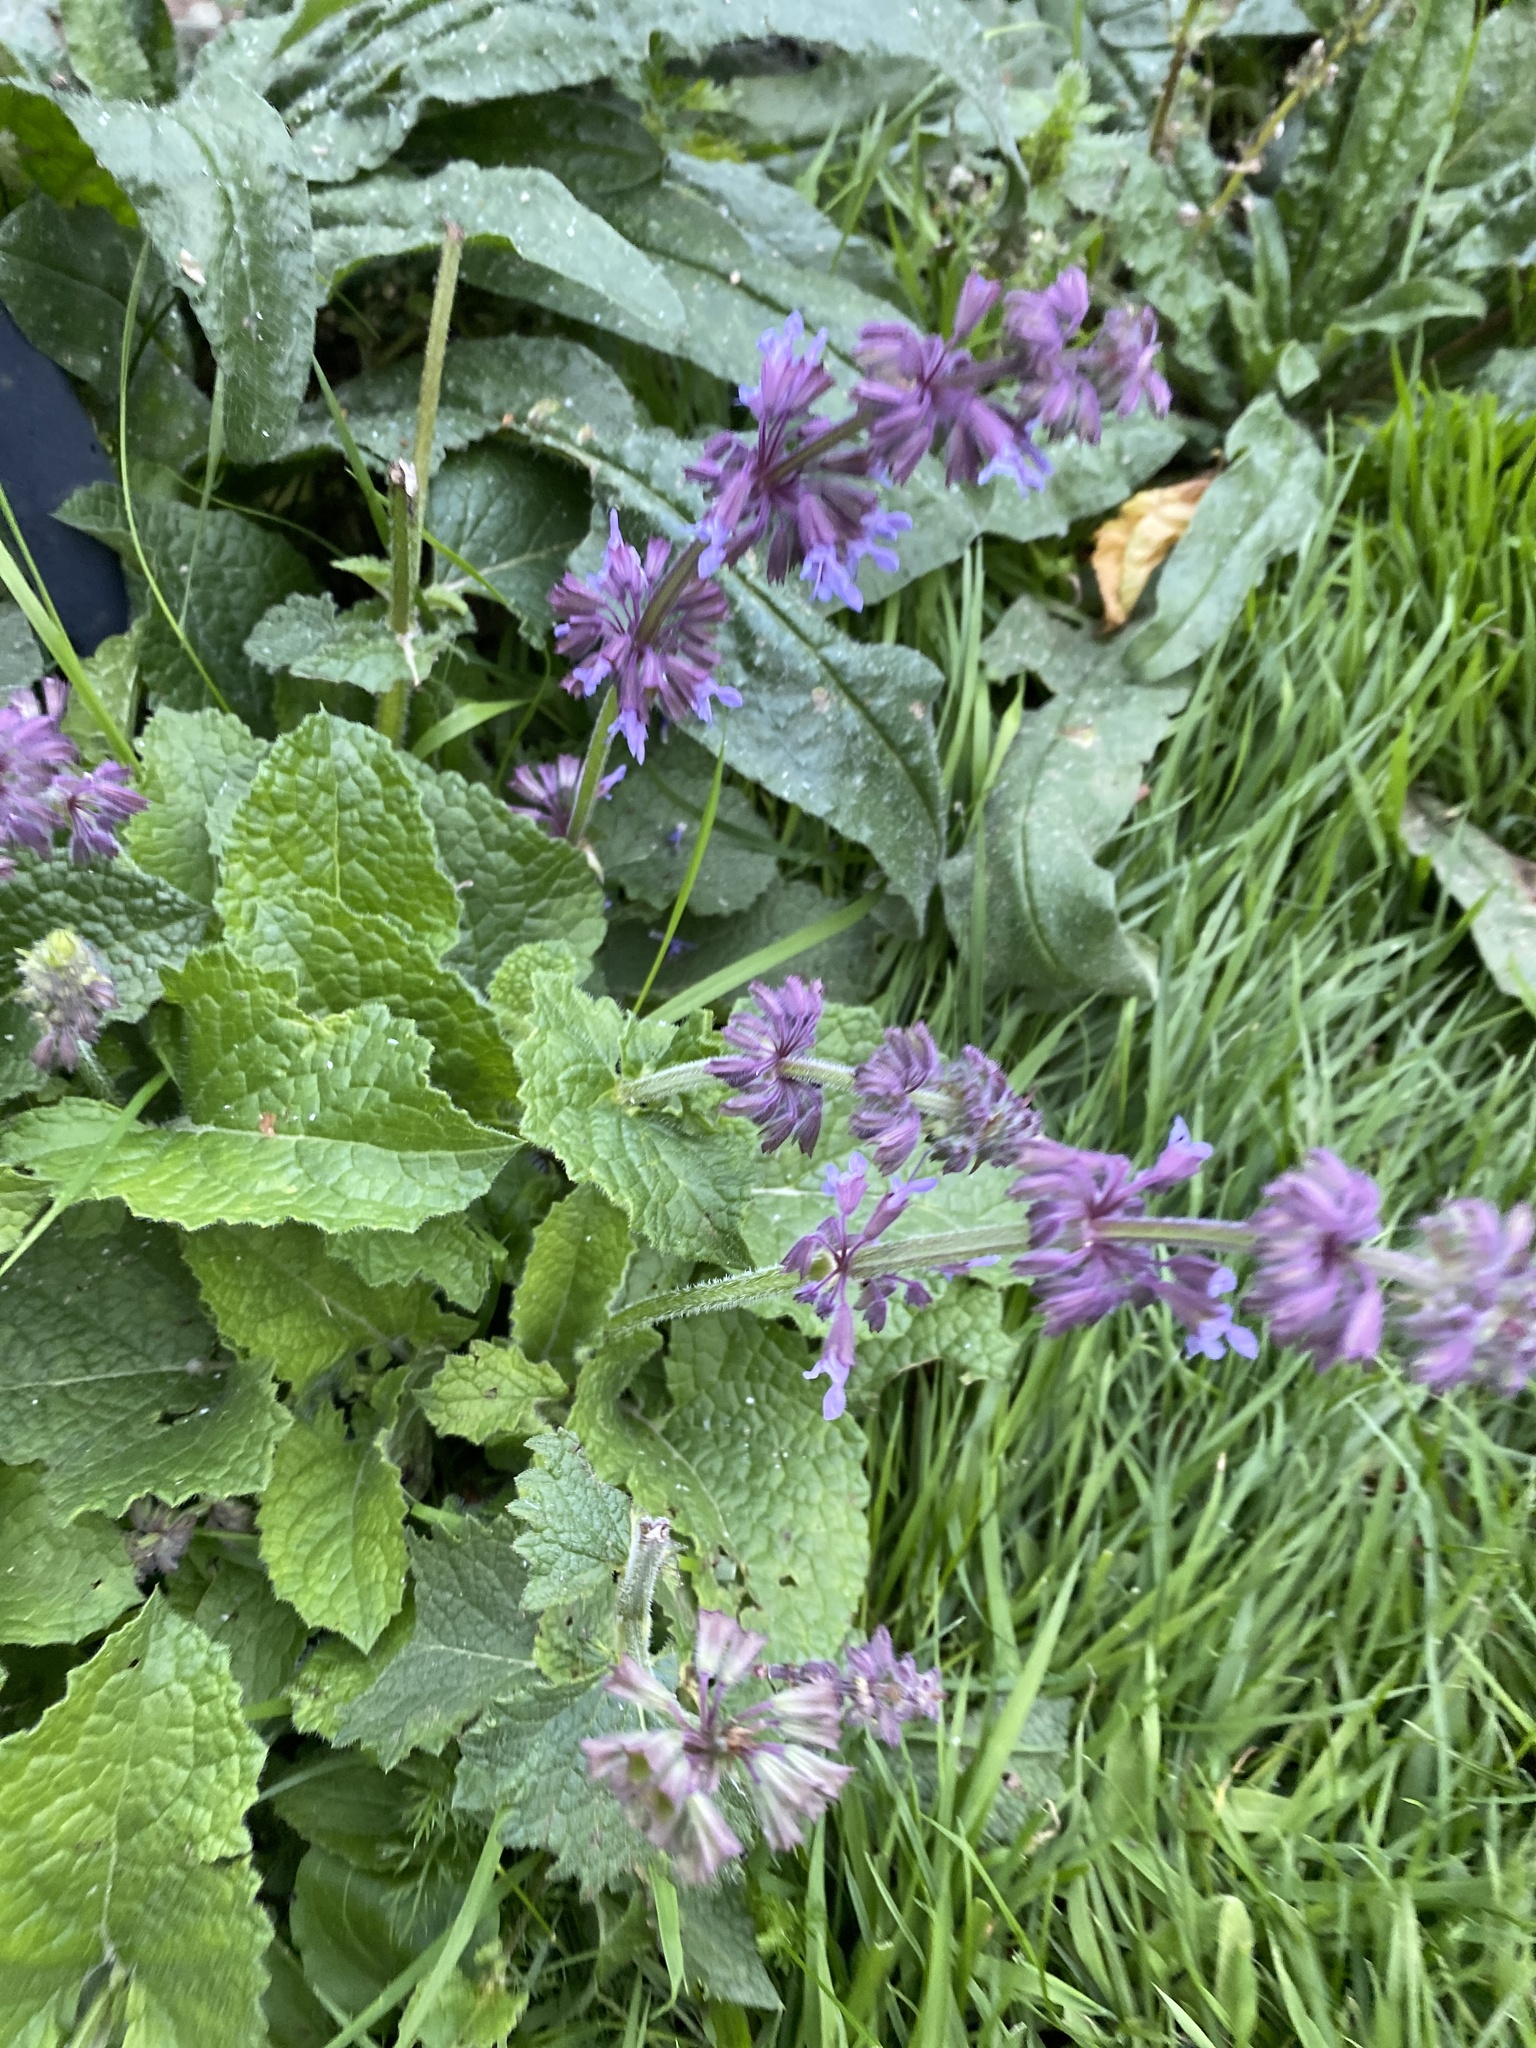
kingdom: Plantae
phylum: Tracheophyta
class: Magnoliopsida
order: Lamiales
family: Lamiaceae
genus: Salvia
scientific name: Salvia verticillata
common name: Whorled clary
